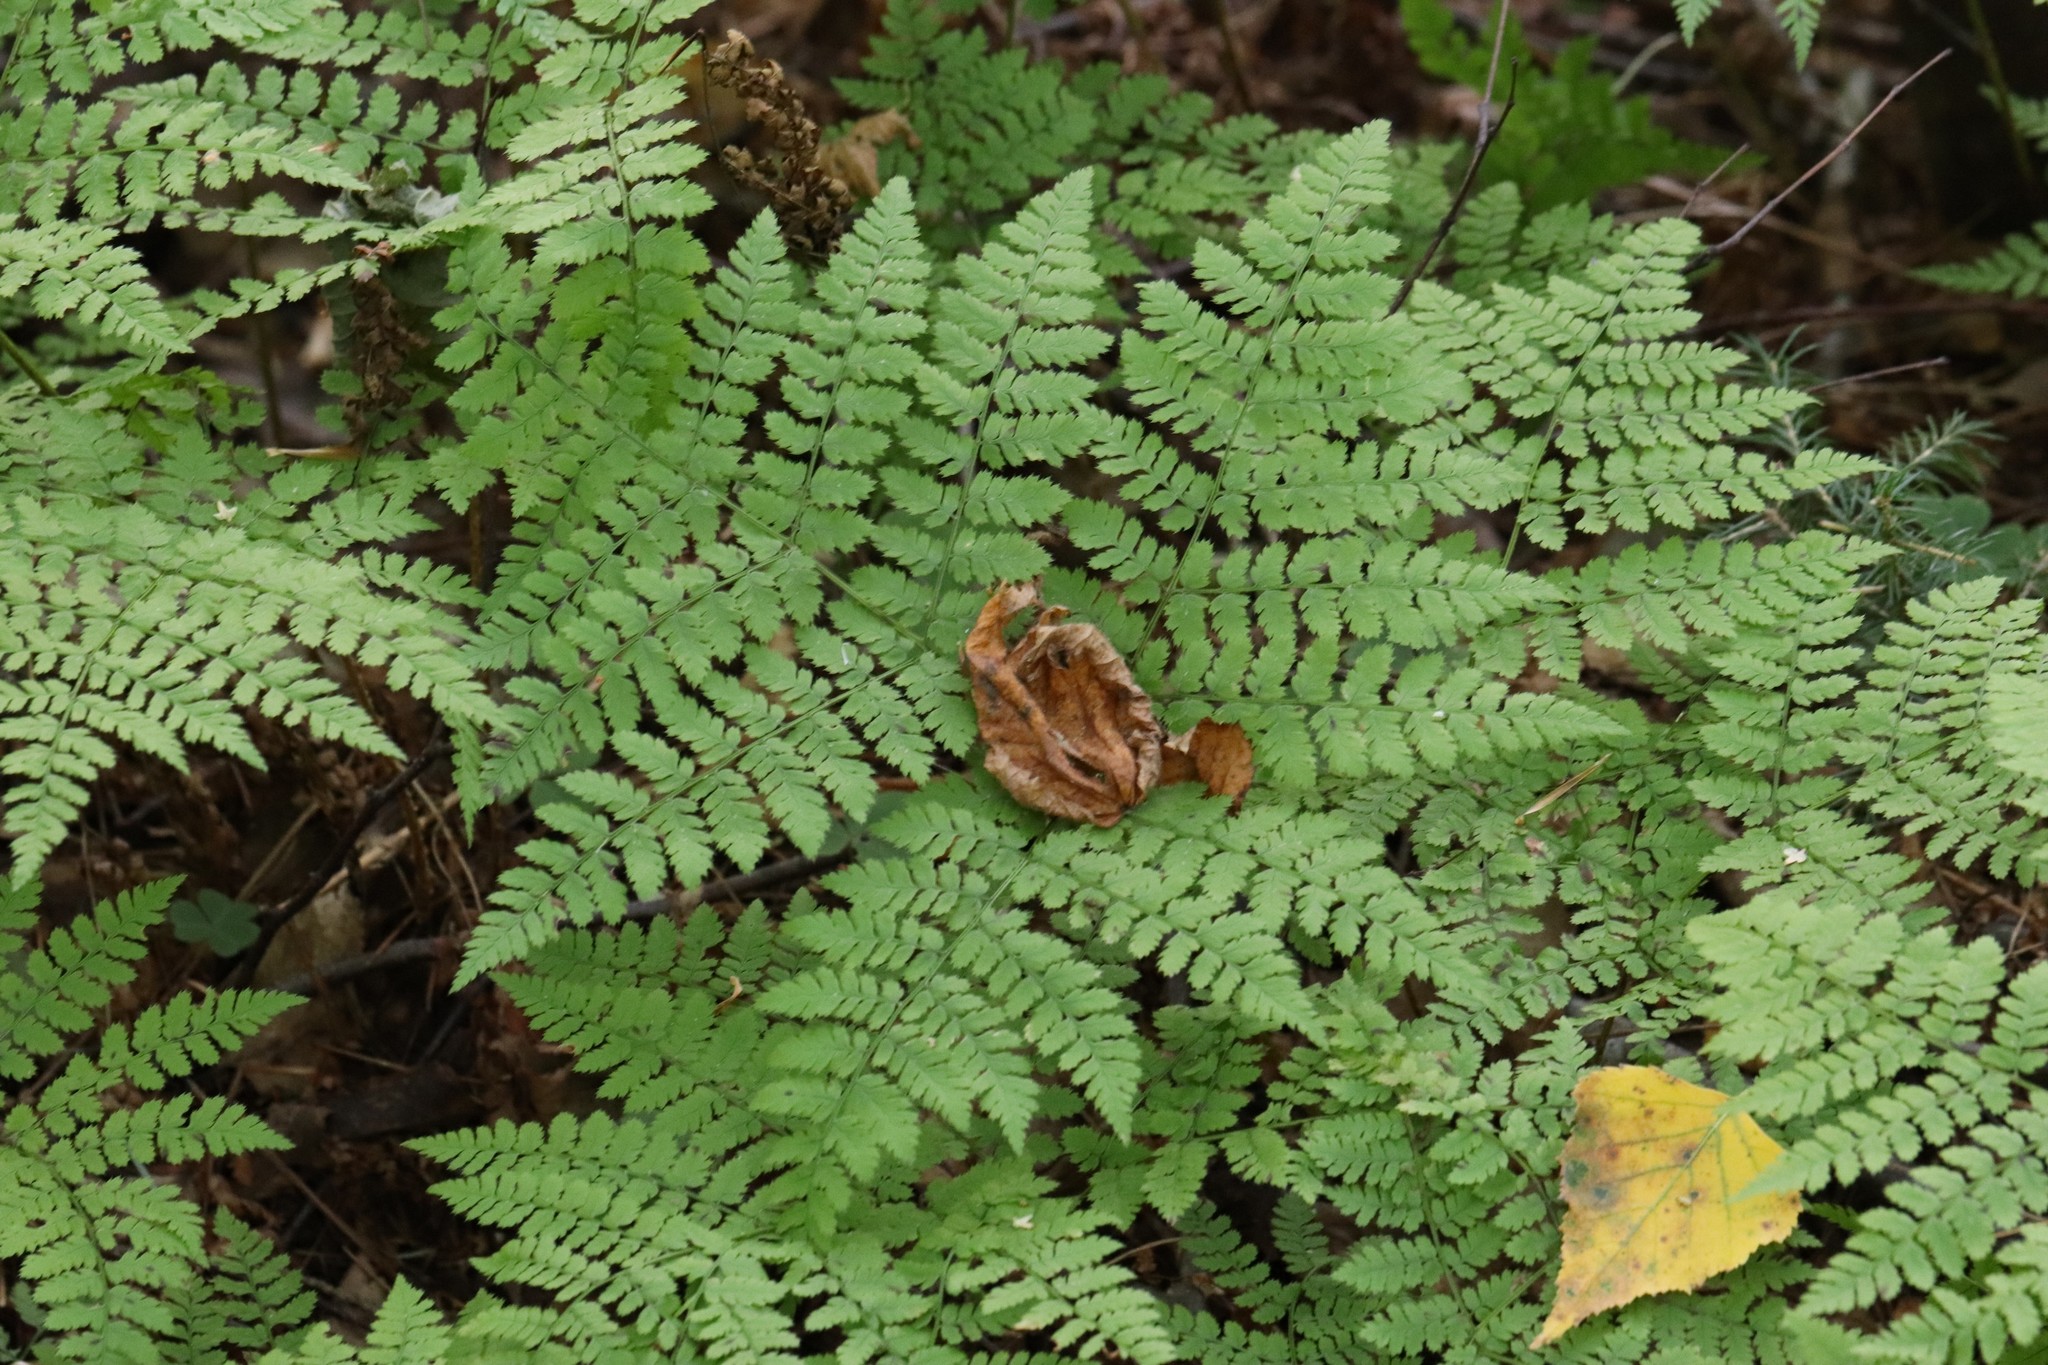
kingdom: Plantae
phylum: Tracheophyta
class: Polypodiopsida
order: Polypodiales
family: Dryopteridaceae
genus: Dryopteris
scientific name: Dryopteris amurensis
